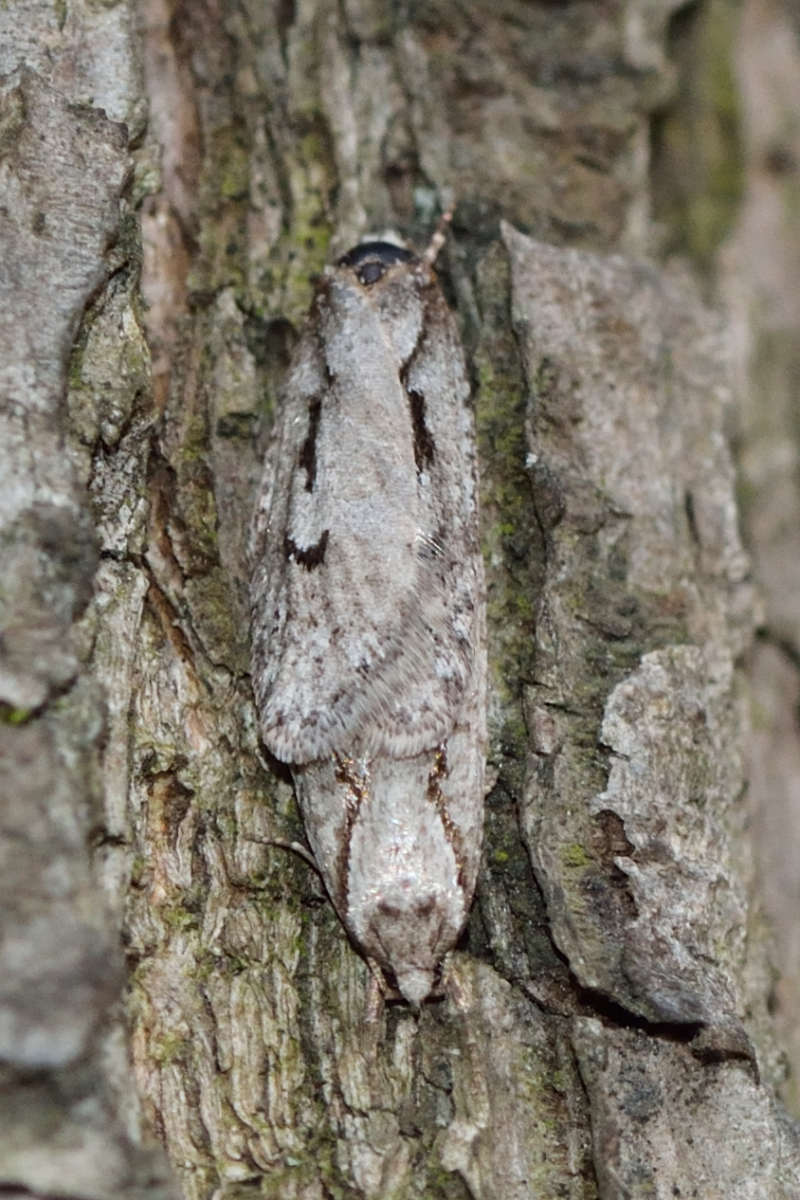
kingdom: Animalia
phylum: Arthropoda
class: Insecta
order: Lepidoptera
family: Depressariidae
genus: Semioscopis
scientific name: Semioscopis avellanella
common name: Early flat-body
